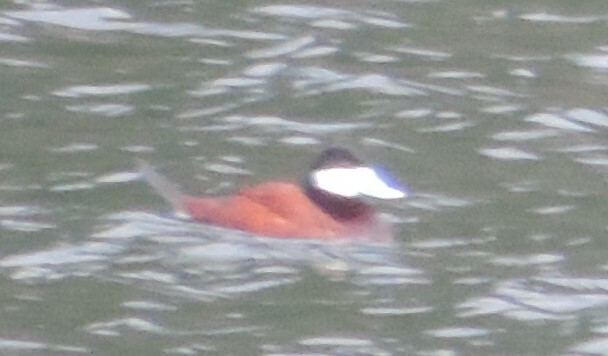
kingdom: Animalia
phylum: Chordata
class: Aves
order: Anseriformes
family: Anatidae
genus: Oxyura
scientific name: Oxyura jamaicensis
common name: Ruddy duck
